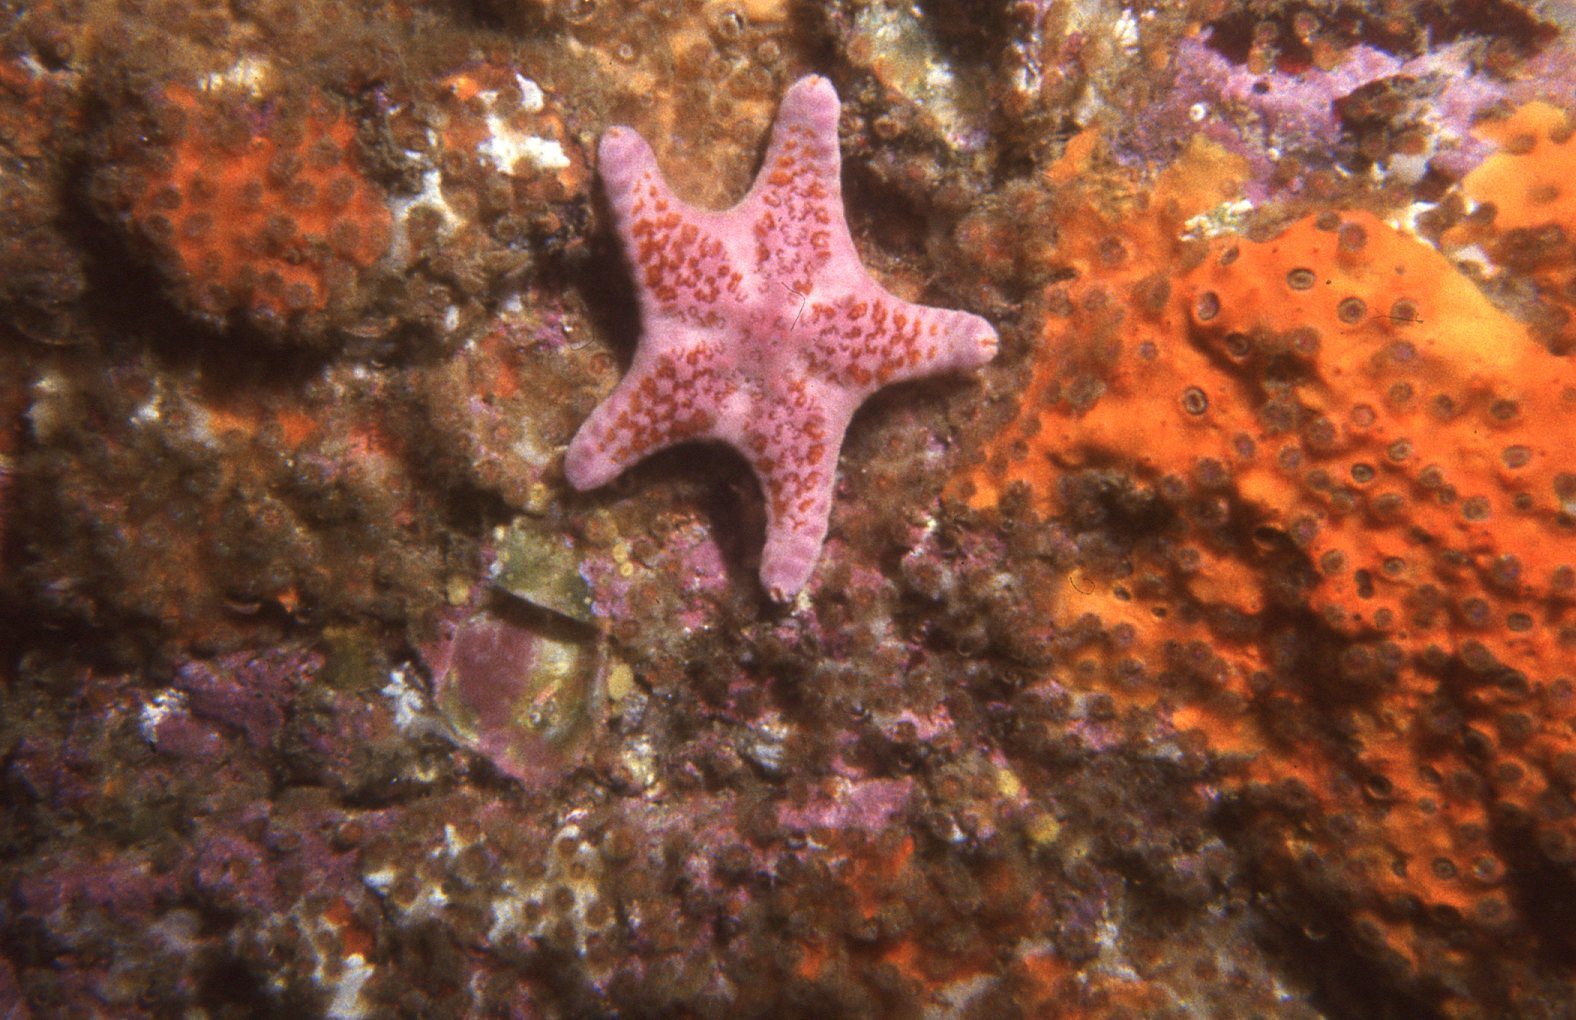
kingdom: Animalia
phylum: Echinodermata
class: Asteroidea
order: Valvatida
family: Asteropseidae
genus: Petricia
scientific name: Petricia vernicina
